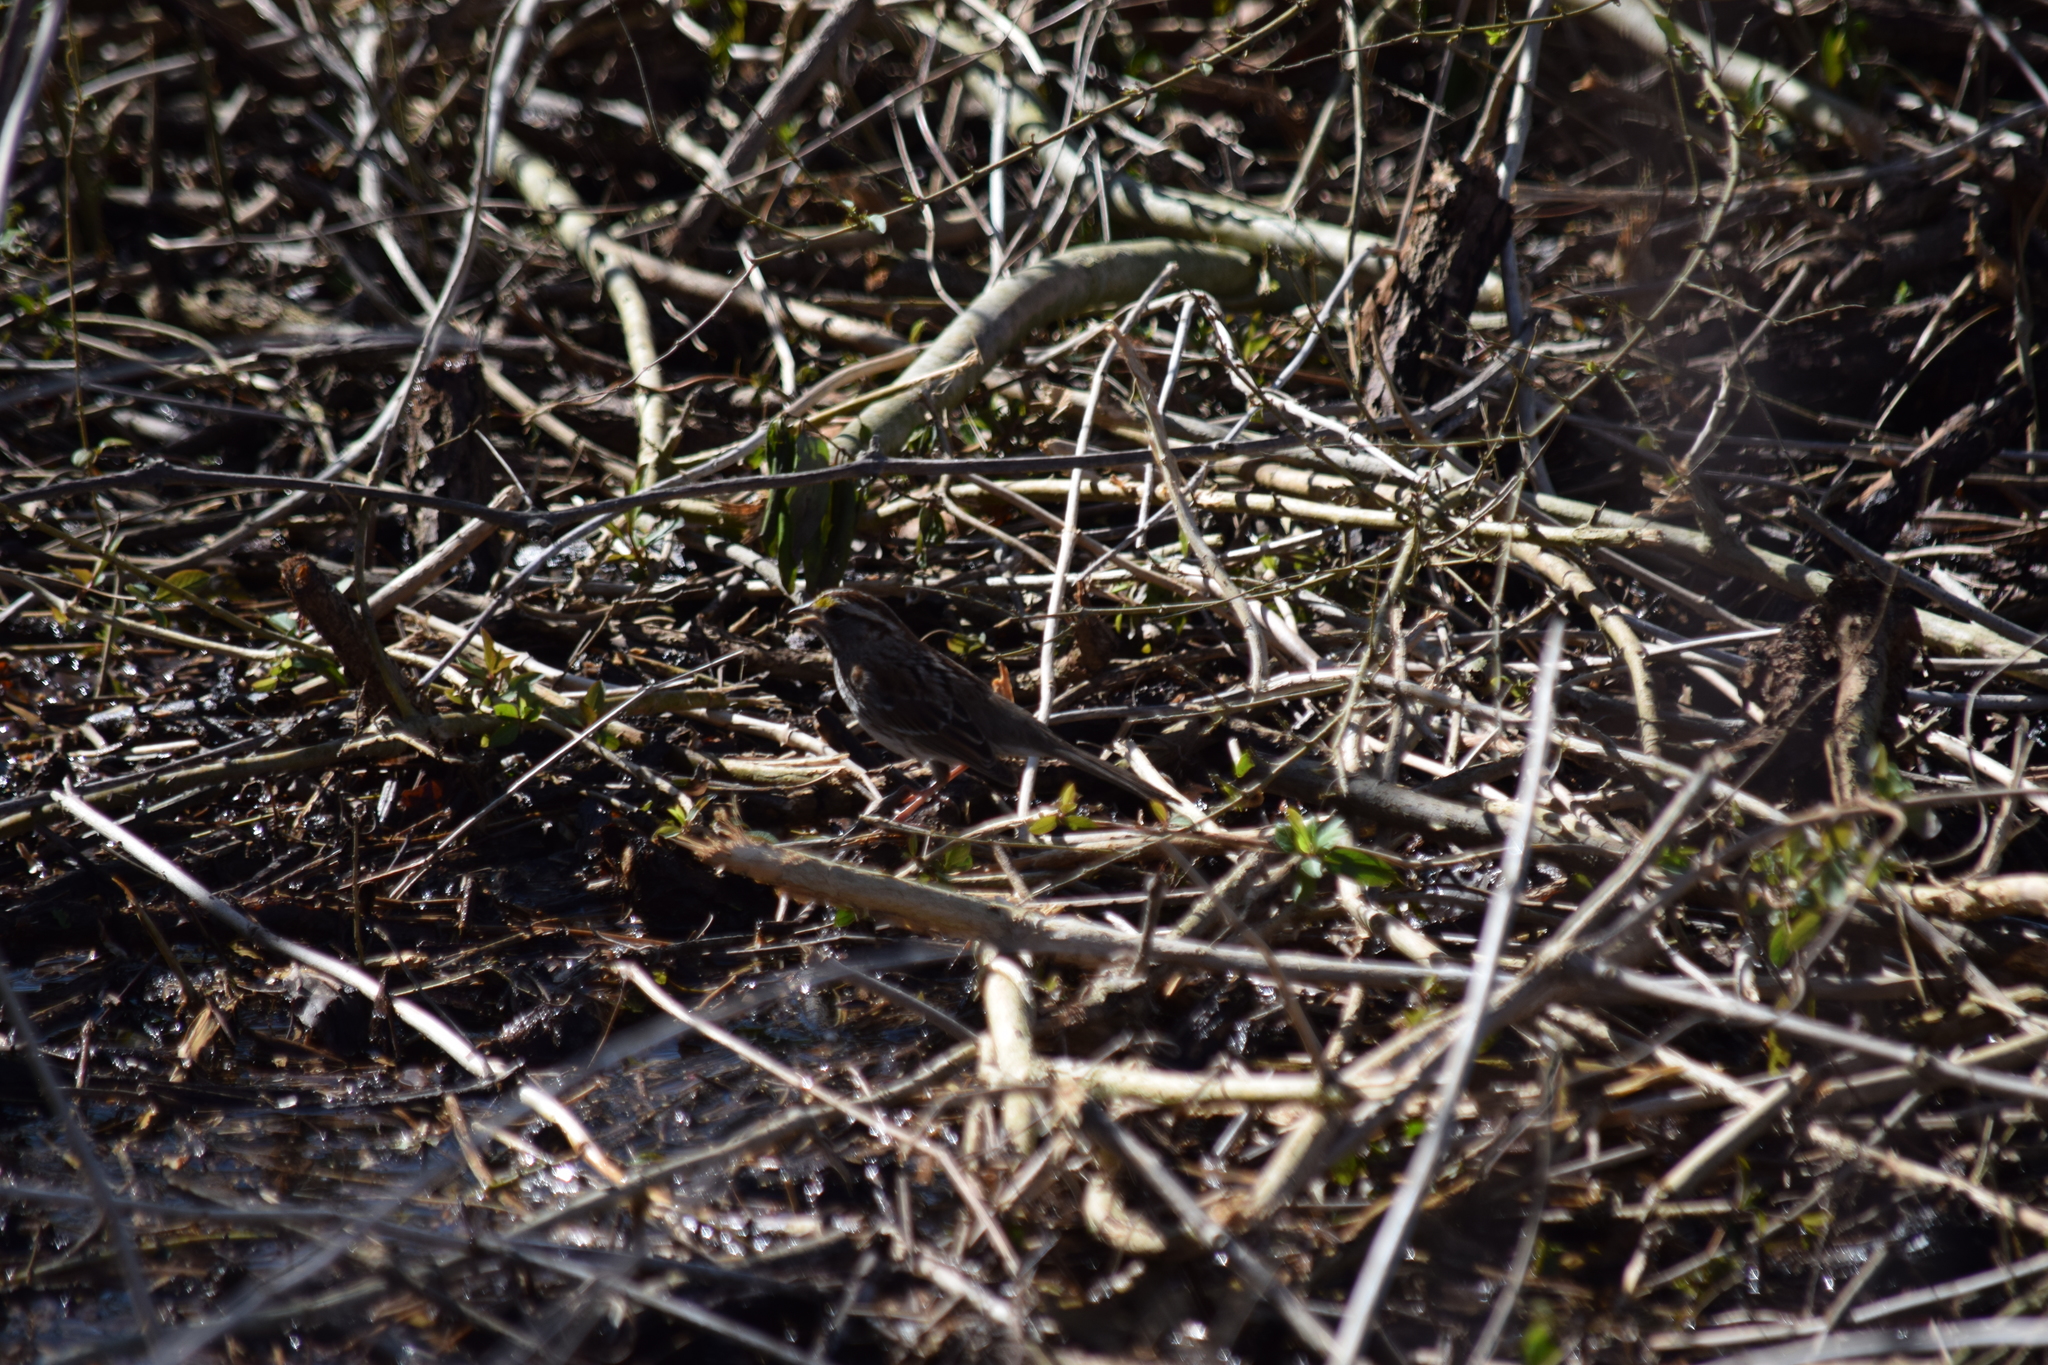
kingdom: Animalia
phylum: Chordata
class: Aves
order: Passeriformes
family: Passerellidae
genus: Zonotrichia
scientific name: Zonotrichia albicollis
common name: White-throated sparrow
